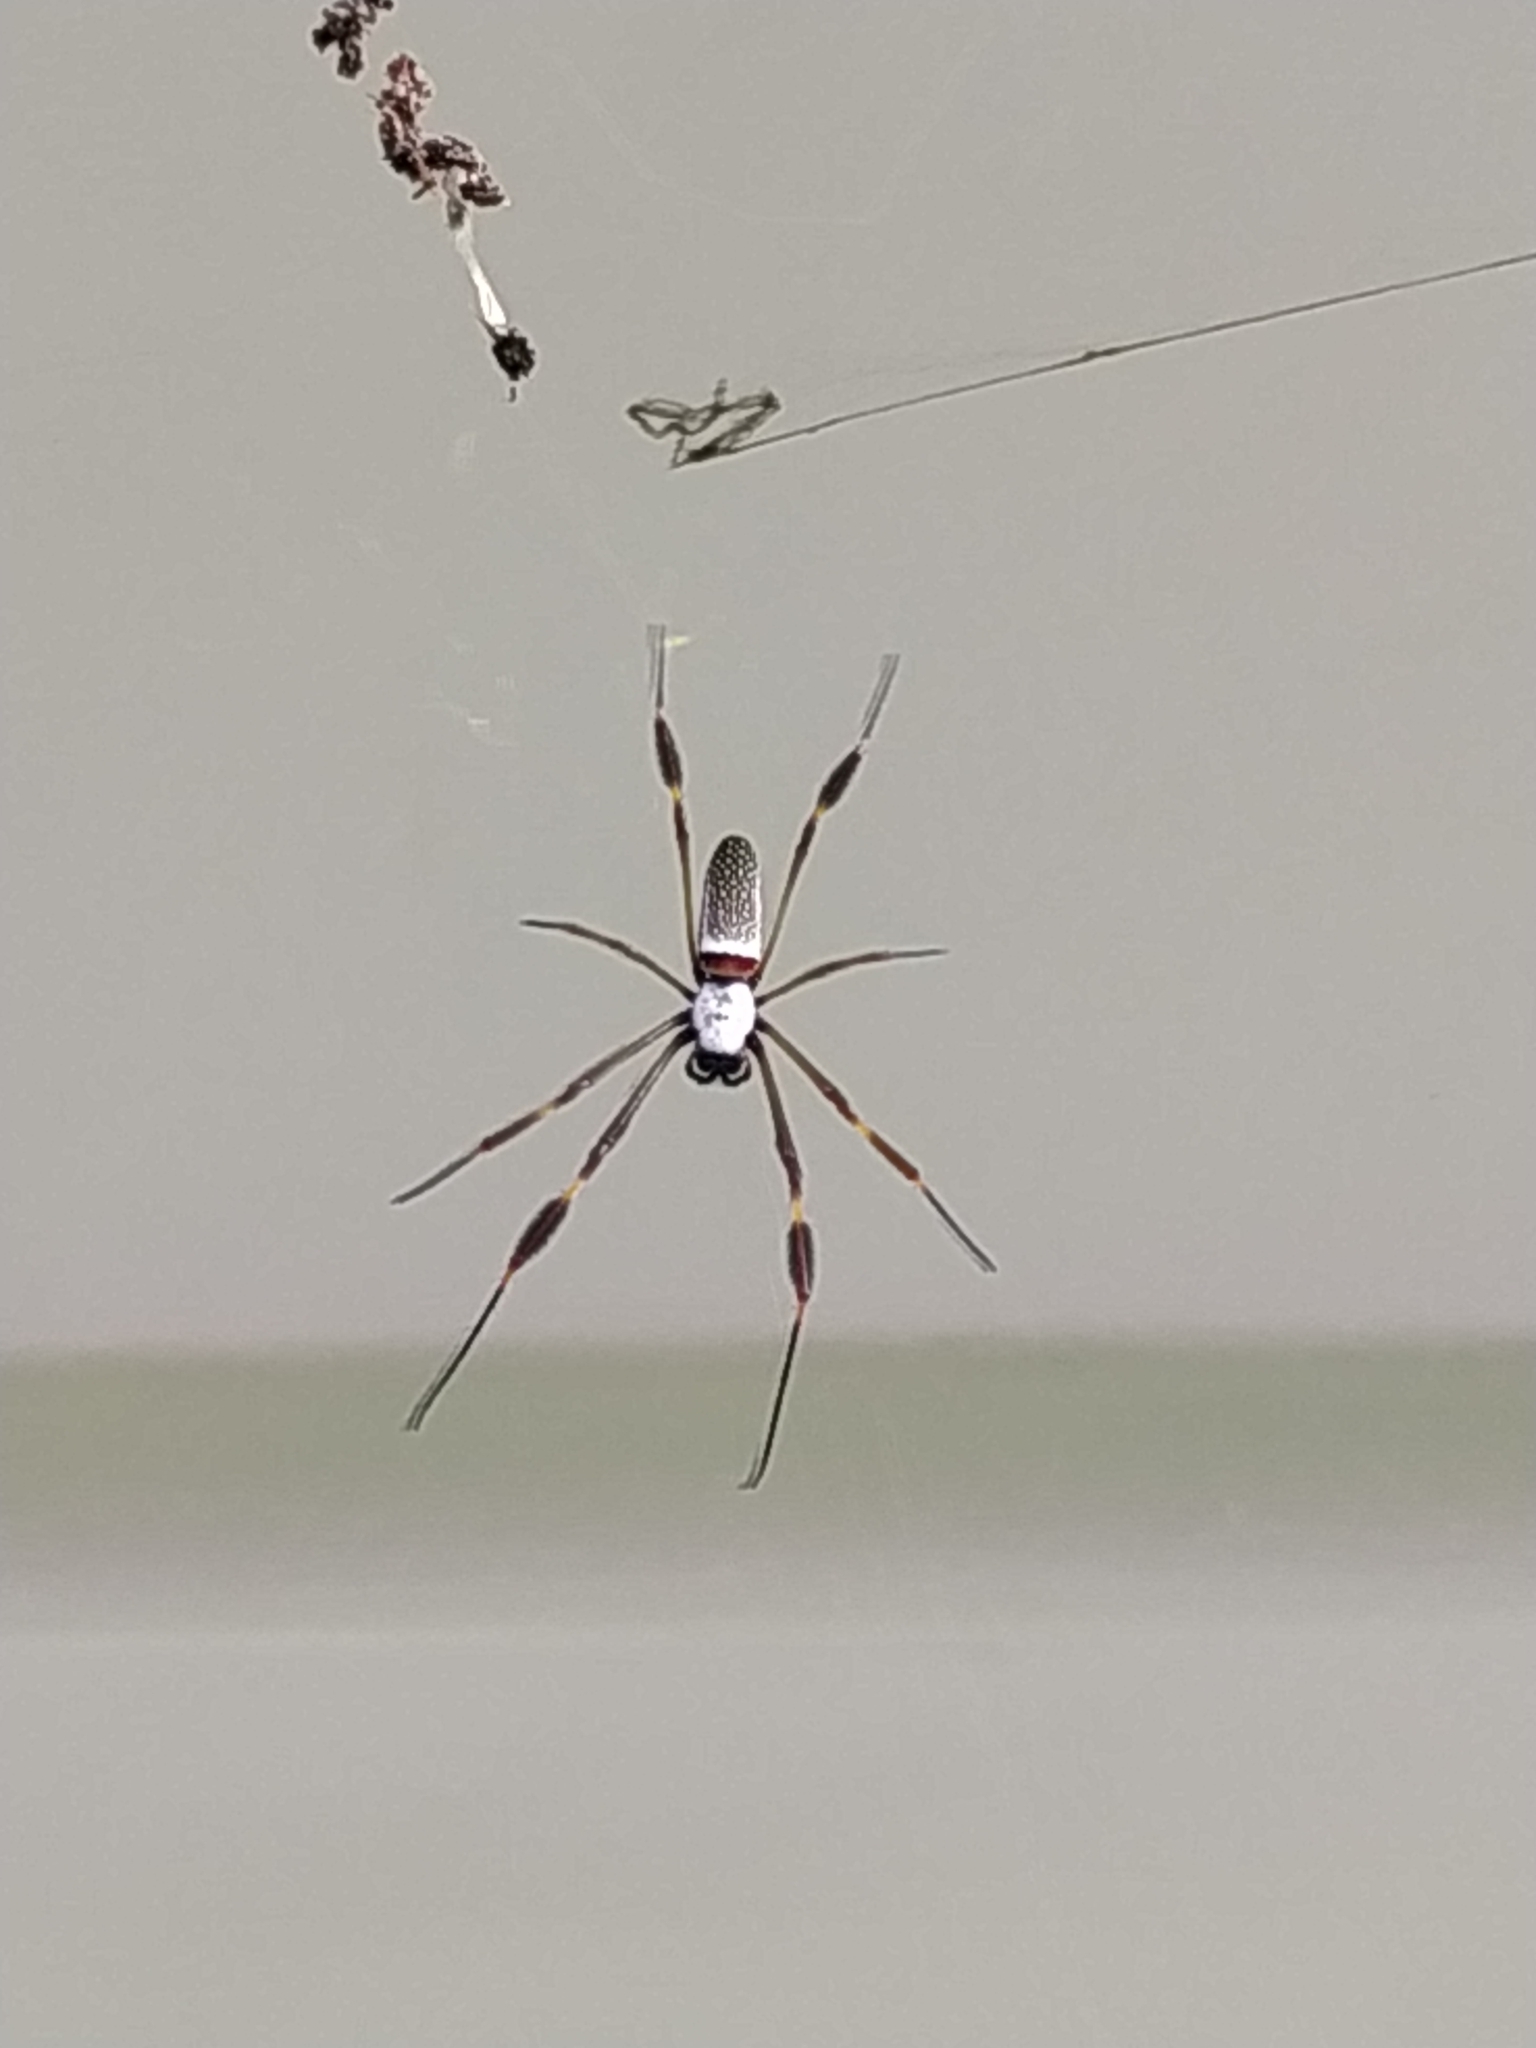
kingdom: Animalia
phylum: Arthropoda
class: Arachnida
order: Araneae
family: Araneidae
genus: Trichonephila
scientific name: Trichonephila clavipes
